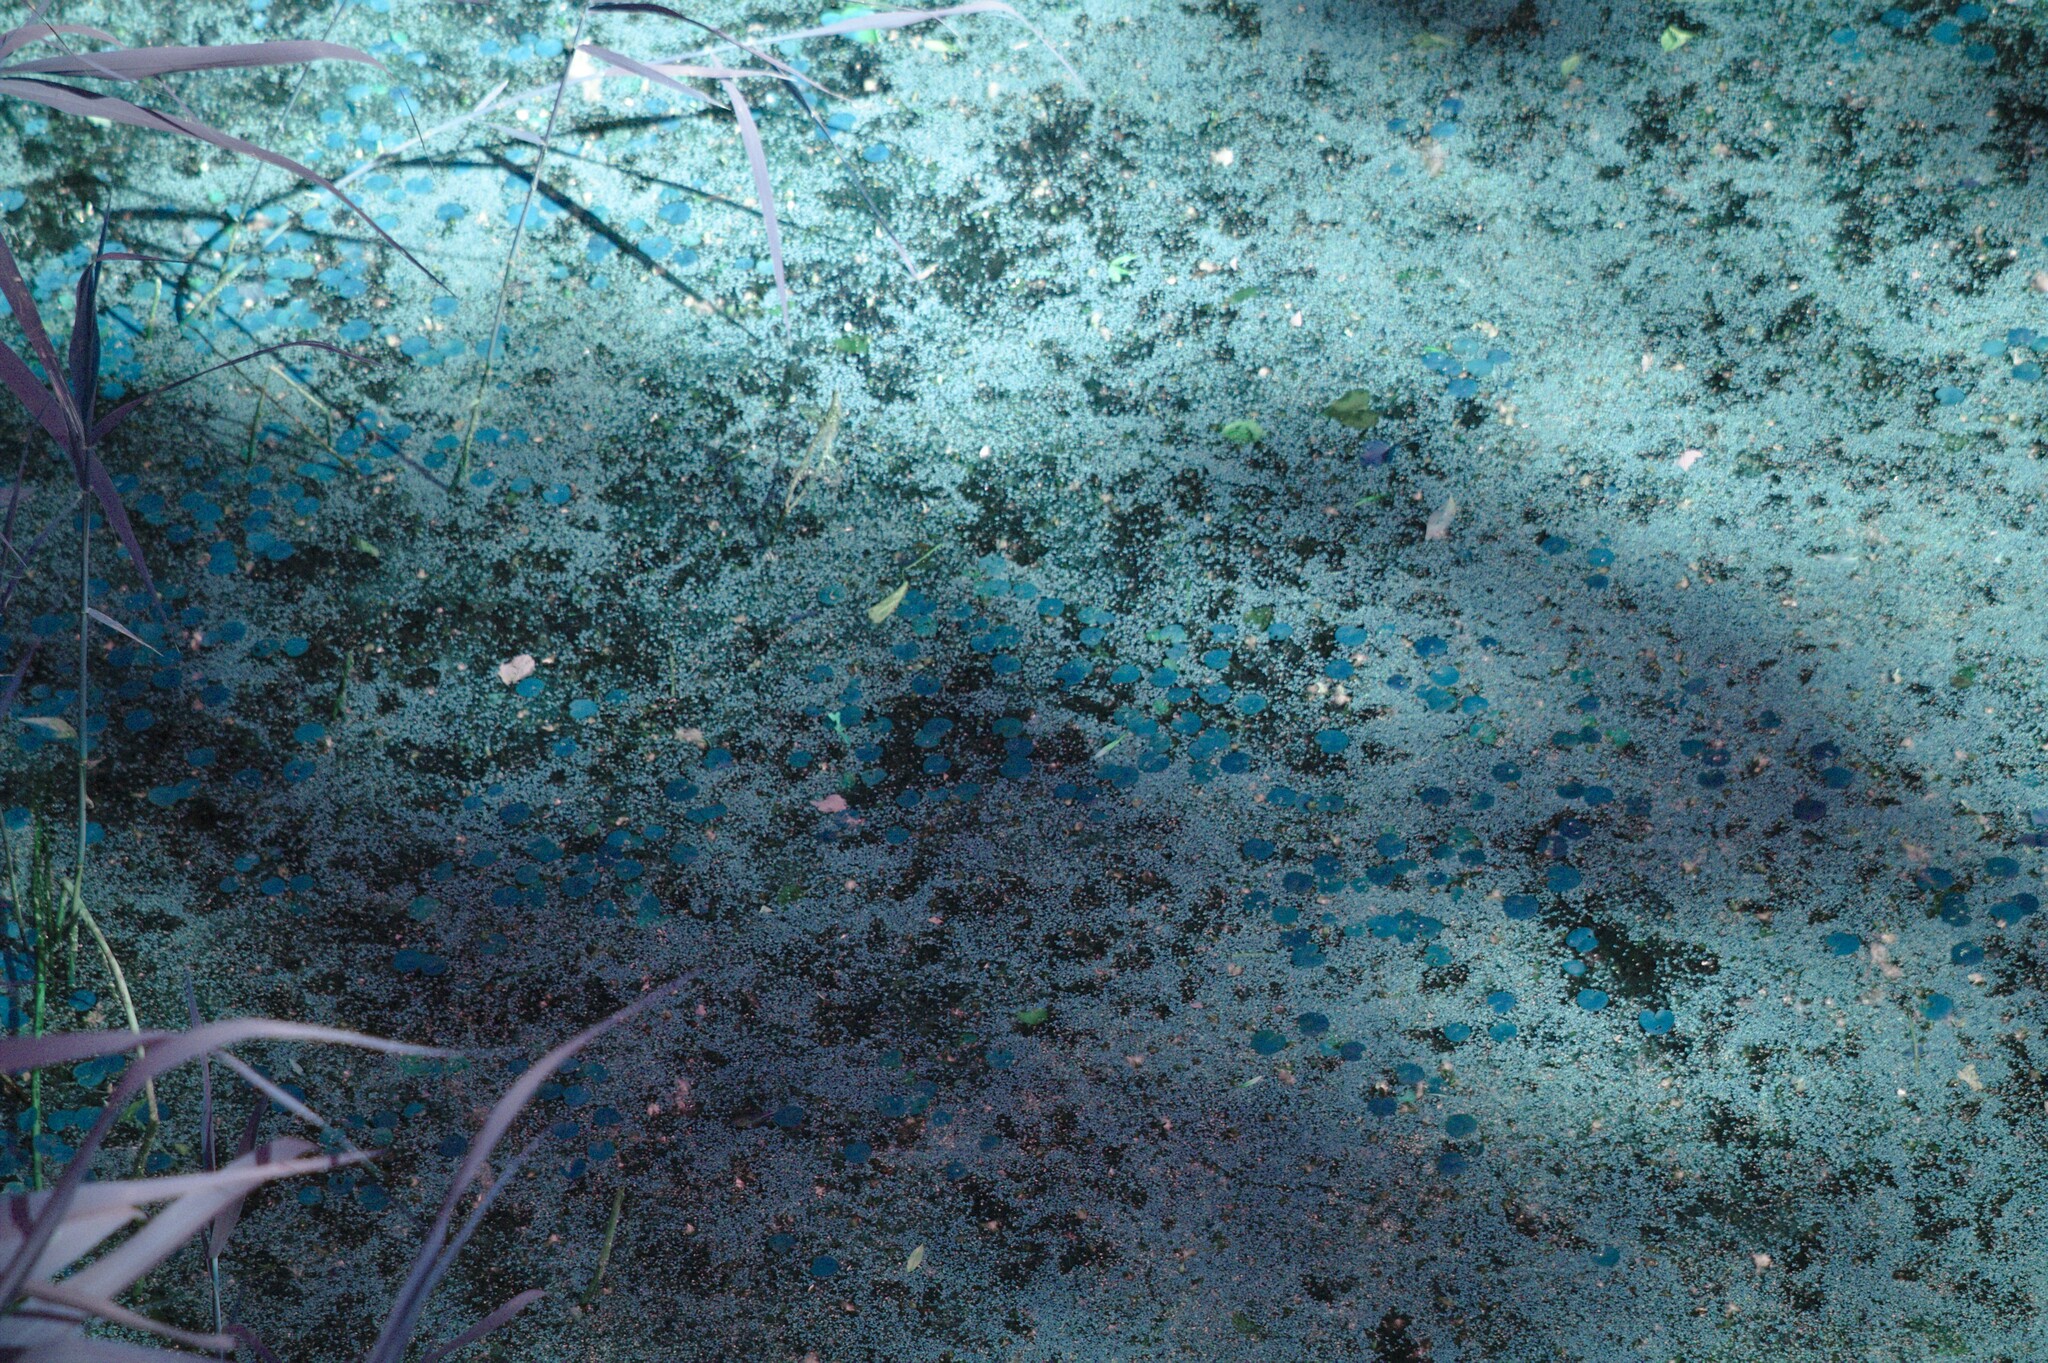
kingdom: Plantae
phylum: Tracheophyta
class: Liliopsida
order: Alismatales
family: Hydrocharitaceae
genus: Hydrocharis
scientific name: Hydrocharis morsus-ranae
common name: Frogbit
